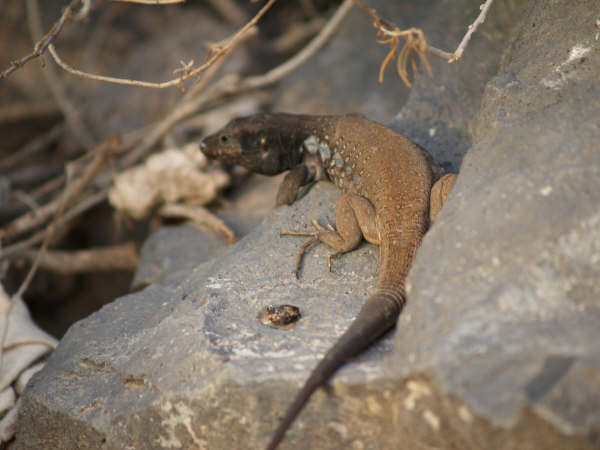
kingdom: Animalia
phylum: Chordata
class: Squamata
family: Lacertidae
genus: Gallotia
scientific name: Gallotia galloti
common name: Gallot's lizard
